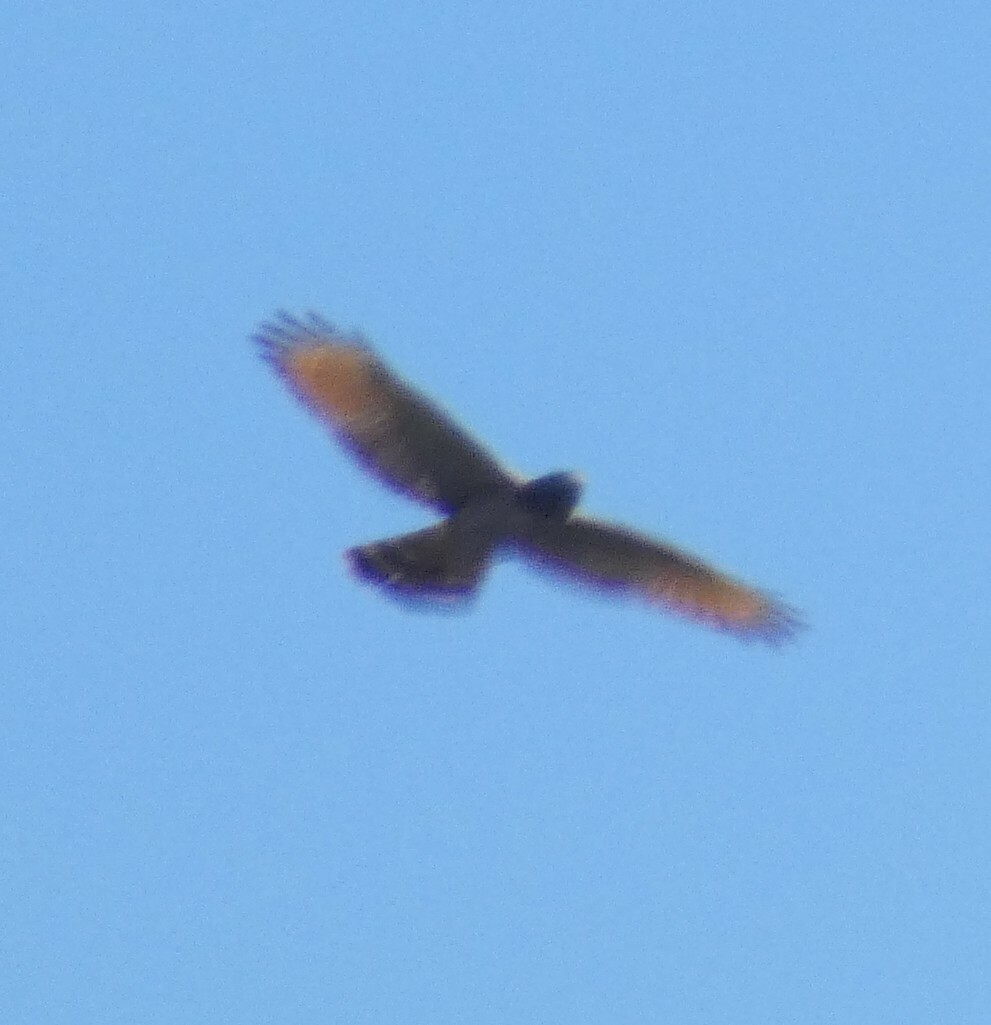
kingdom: Animalia
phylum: Chordata
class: Aves
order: Accipitriformes
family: Accipitridae
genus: Rupornis
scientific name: Rupornis magnirostris
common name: Roadside hawk
